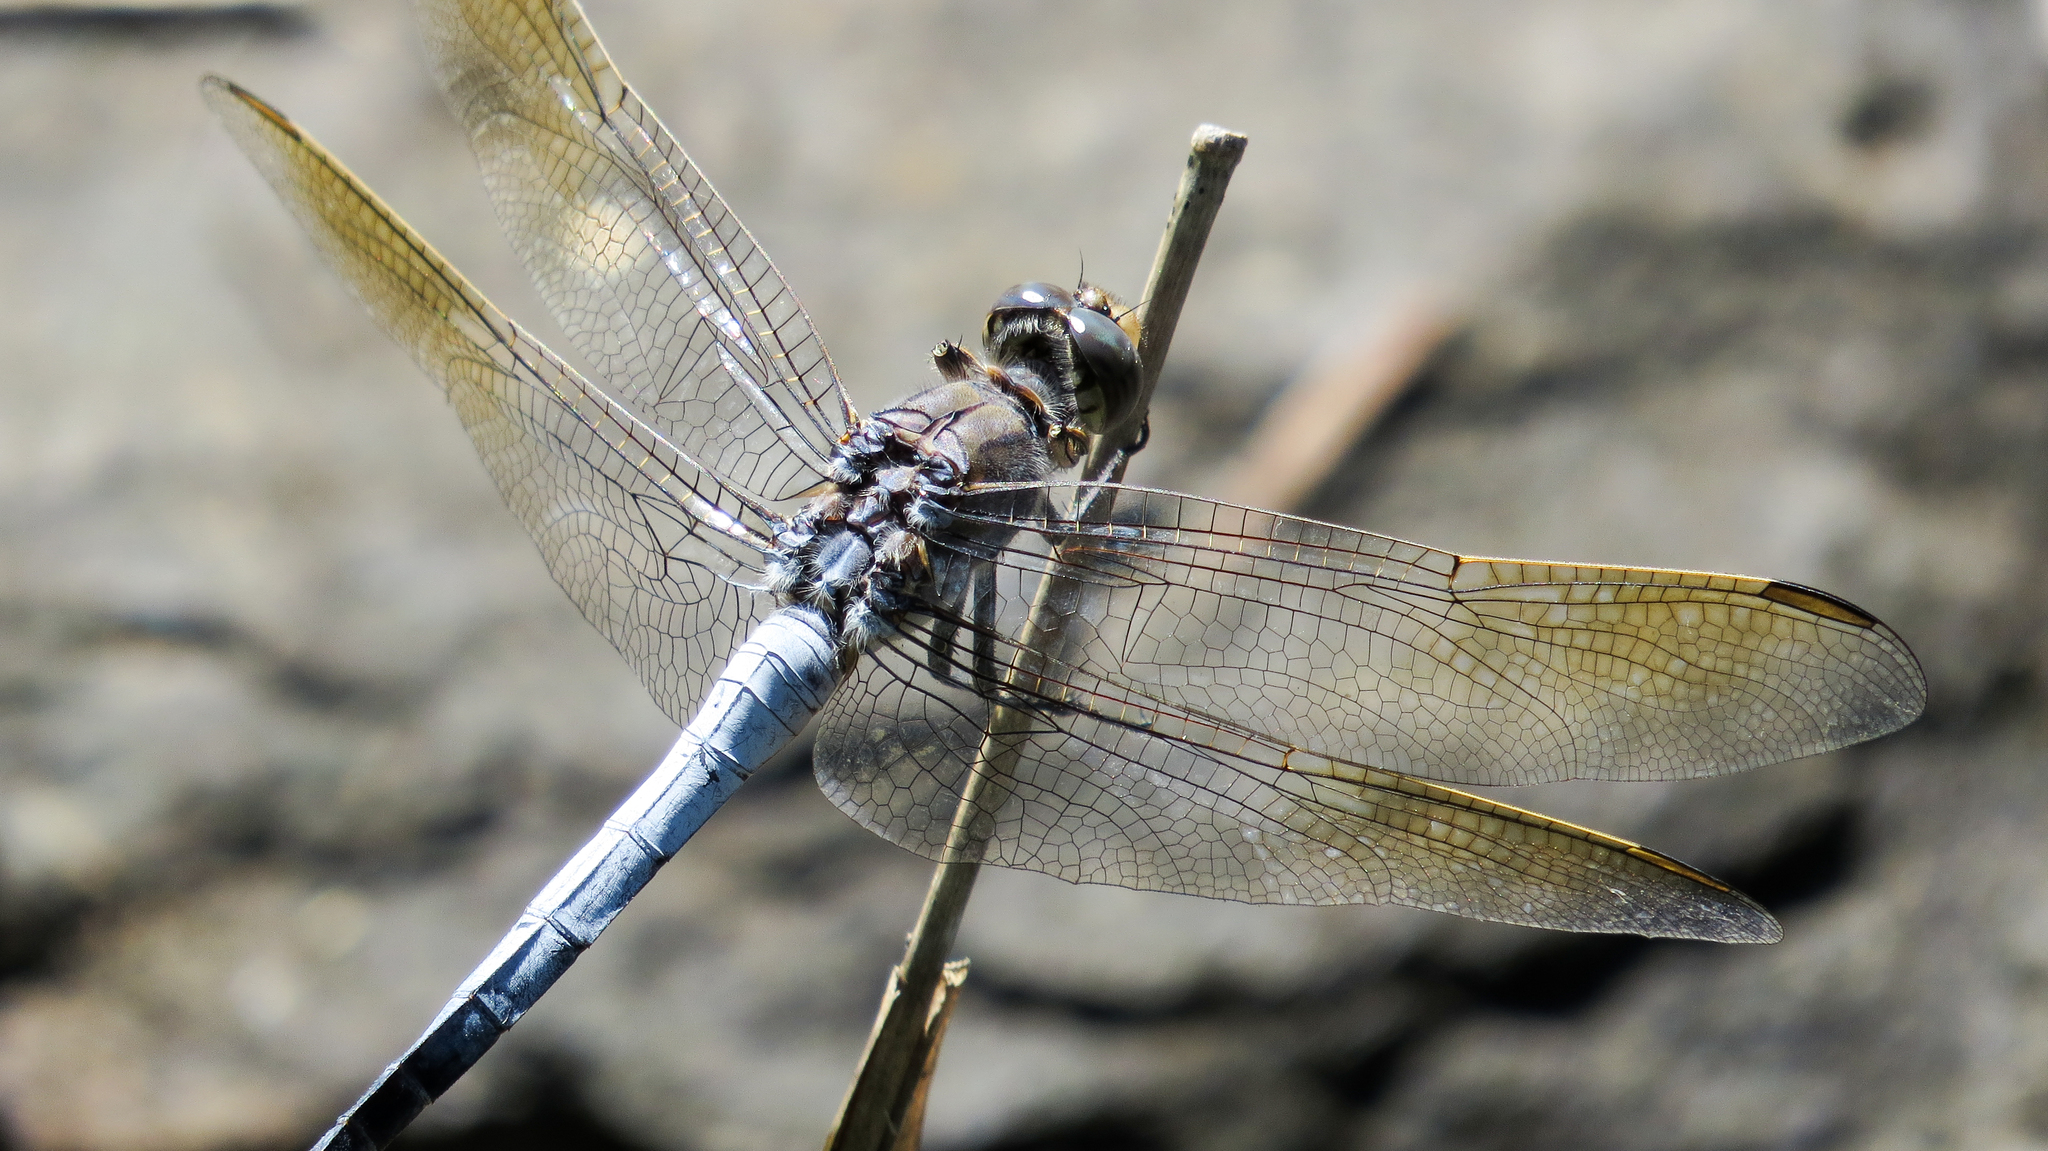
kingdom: Animalia
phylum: Arthropoda
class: Insecta
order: Odonata
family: Libellulidae
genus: Orthetrum
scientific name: Orthetrum caledonicum
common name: Blue skimmer
